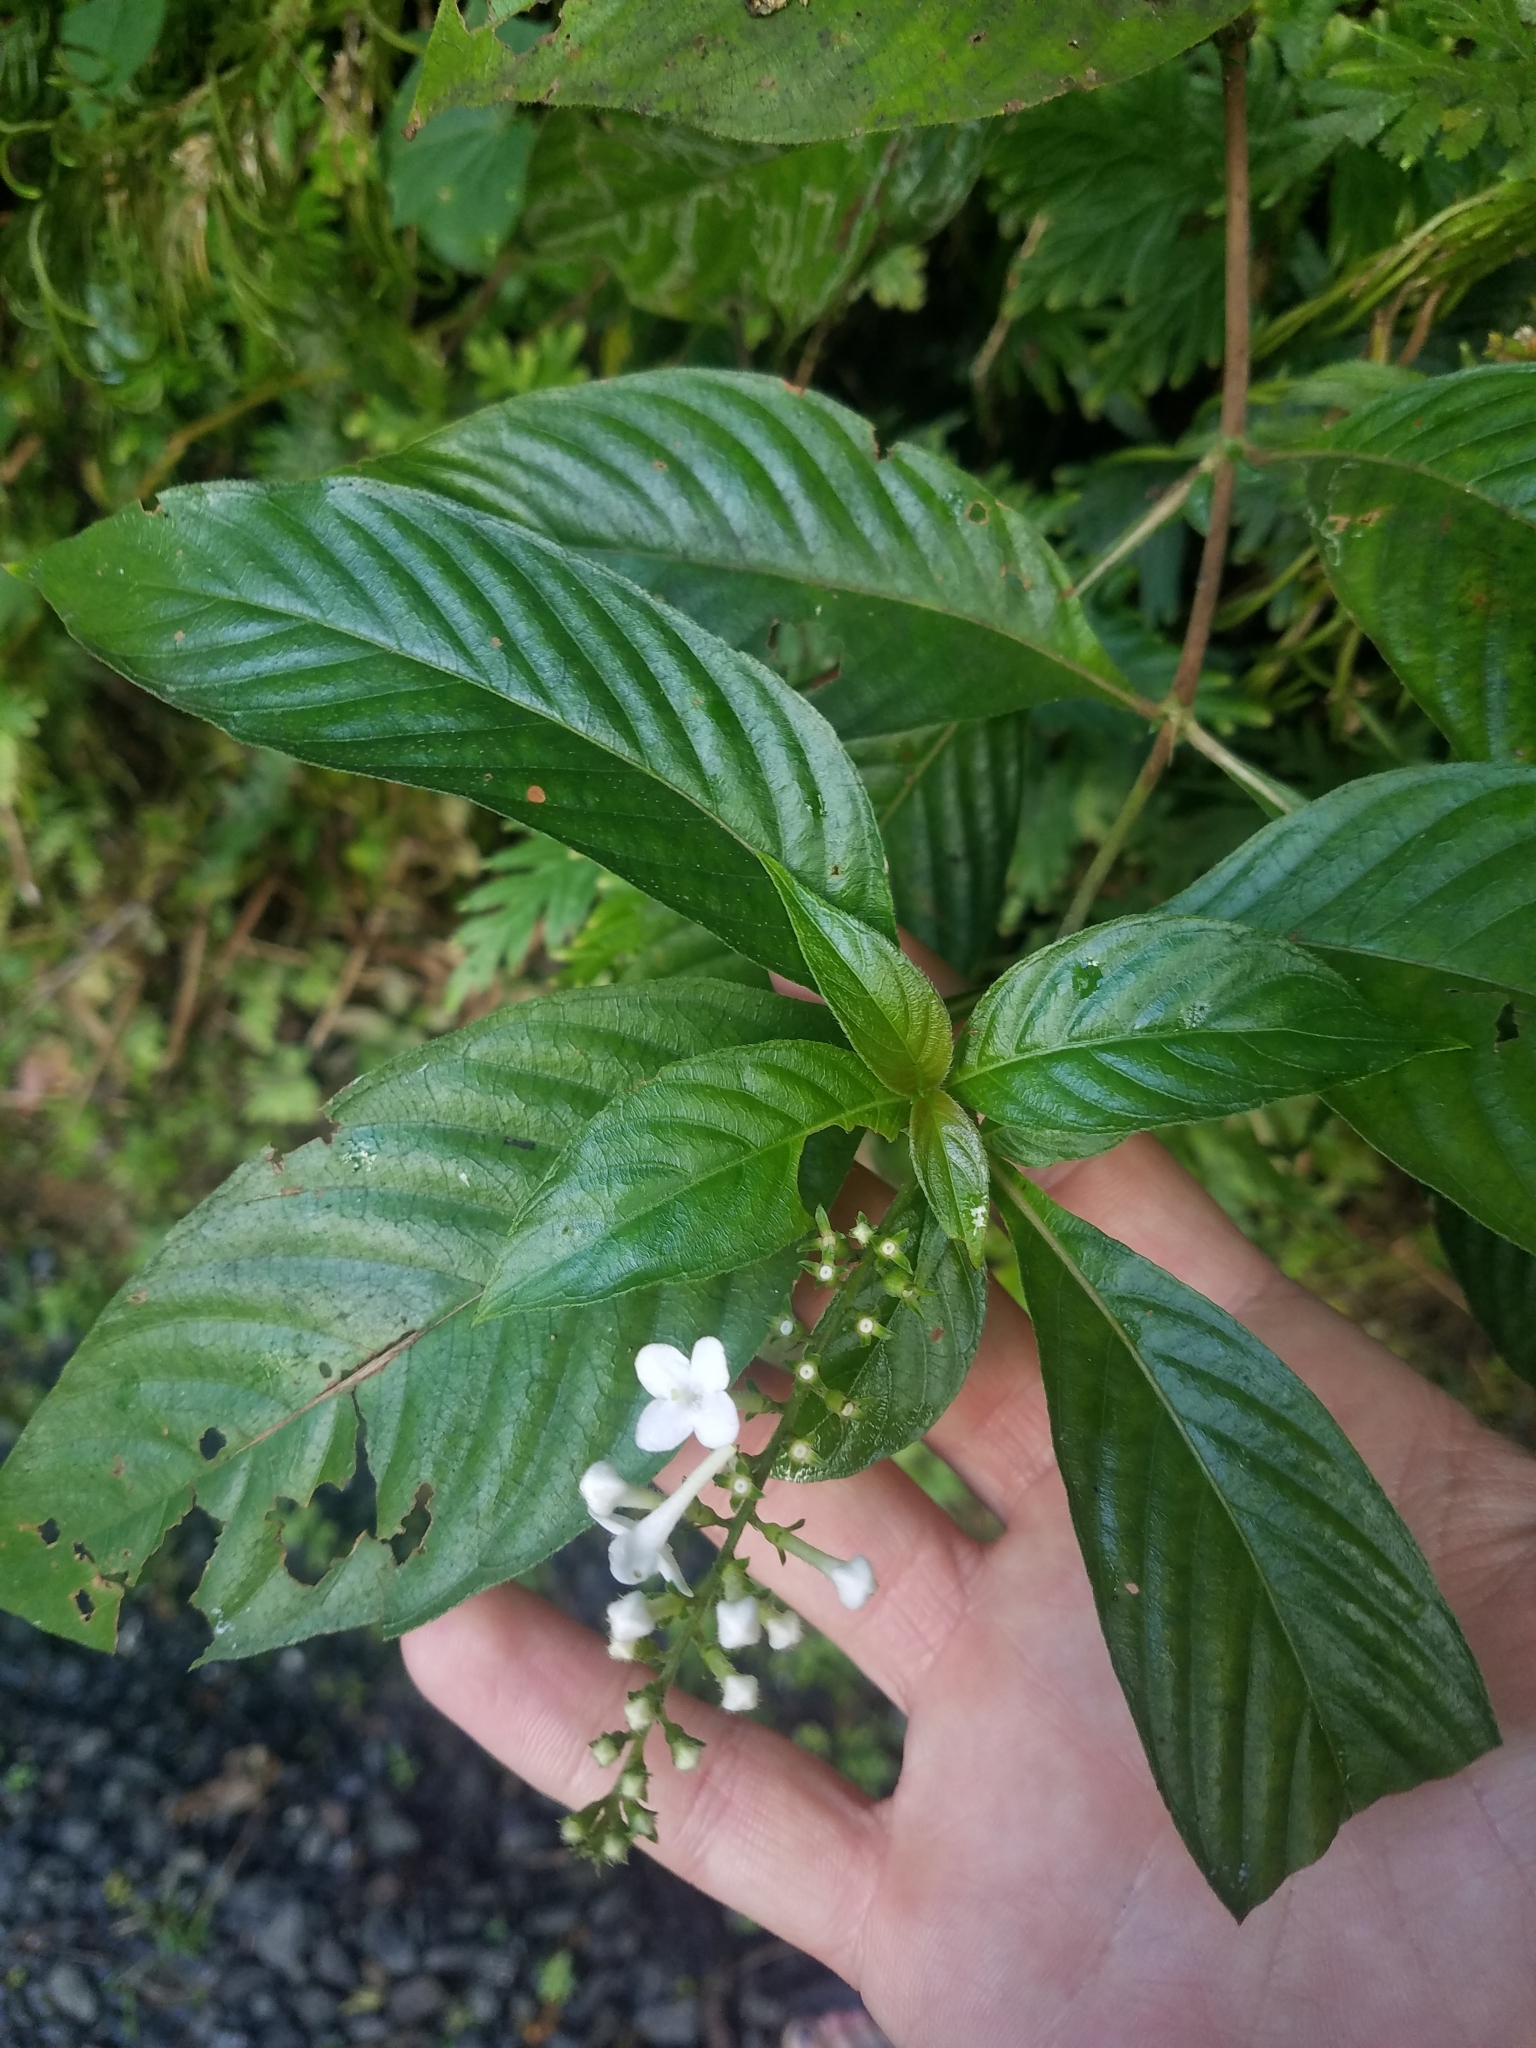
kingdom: Plantae
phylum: Tracheophyta
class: Magnoliopsida
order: Gentianales
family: Rubiaceae
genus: Gonzalagunia
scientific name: Gonzalagunia hirsuta
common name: Mata de mariposa
